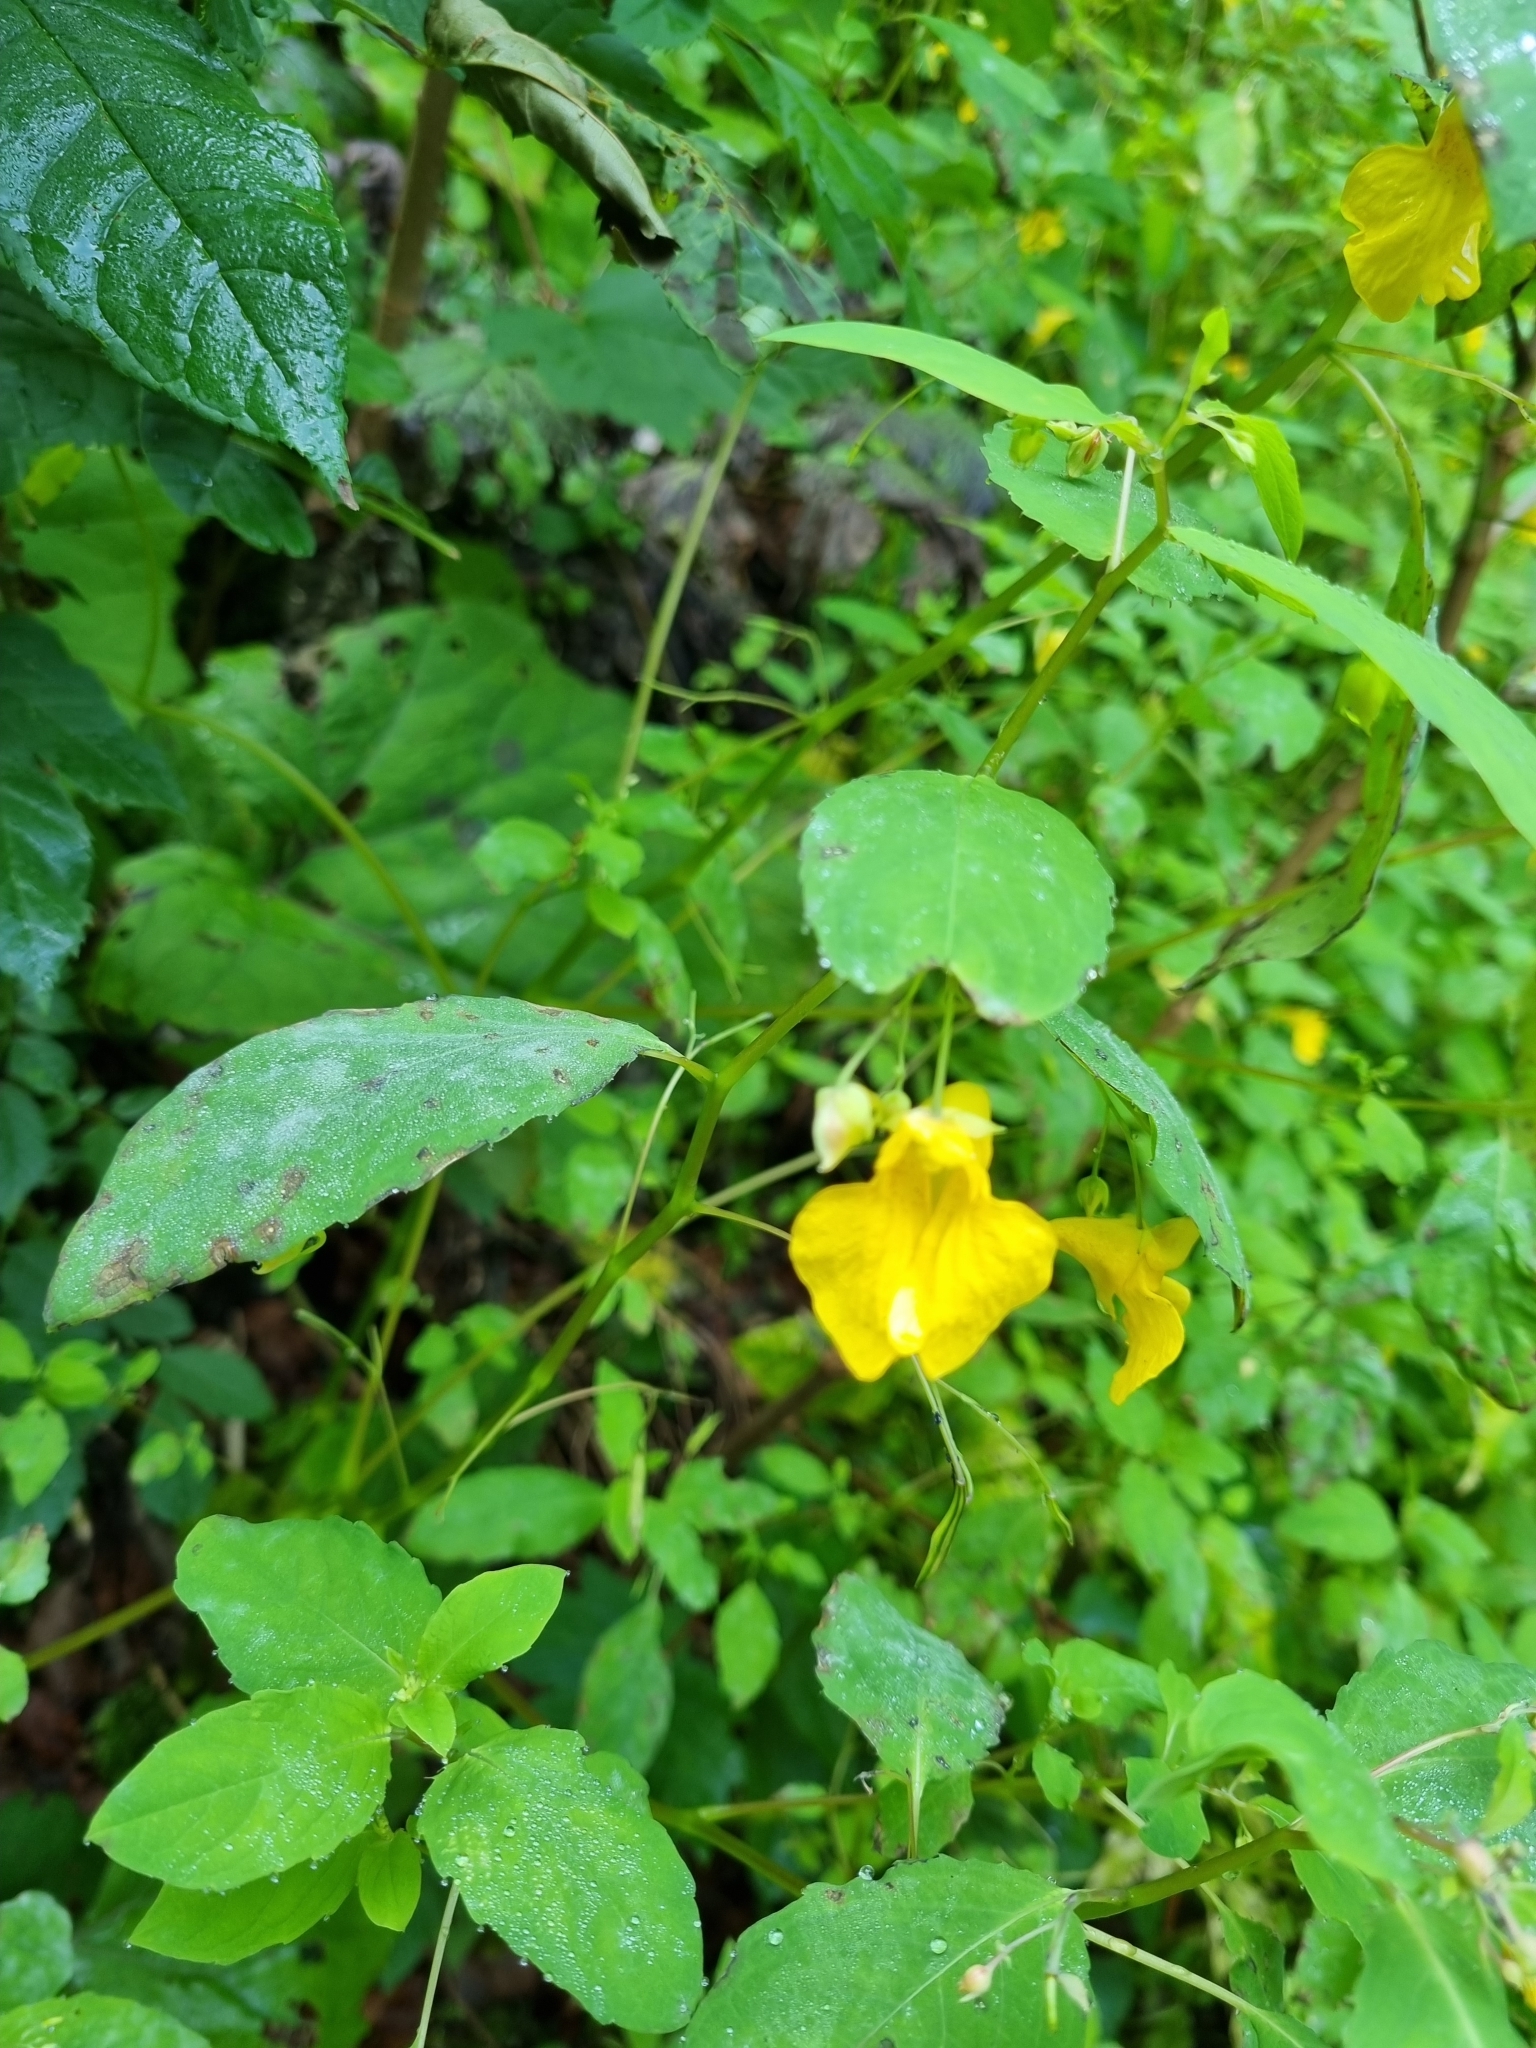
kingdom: Plantae
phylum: Tracheophyta
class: Magnoliopsida
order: Ericales
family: Balsaminaceae
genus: Impatiens
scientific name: Impatiens noli-tangere
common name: Touch-me-not balsam
